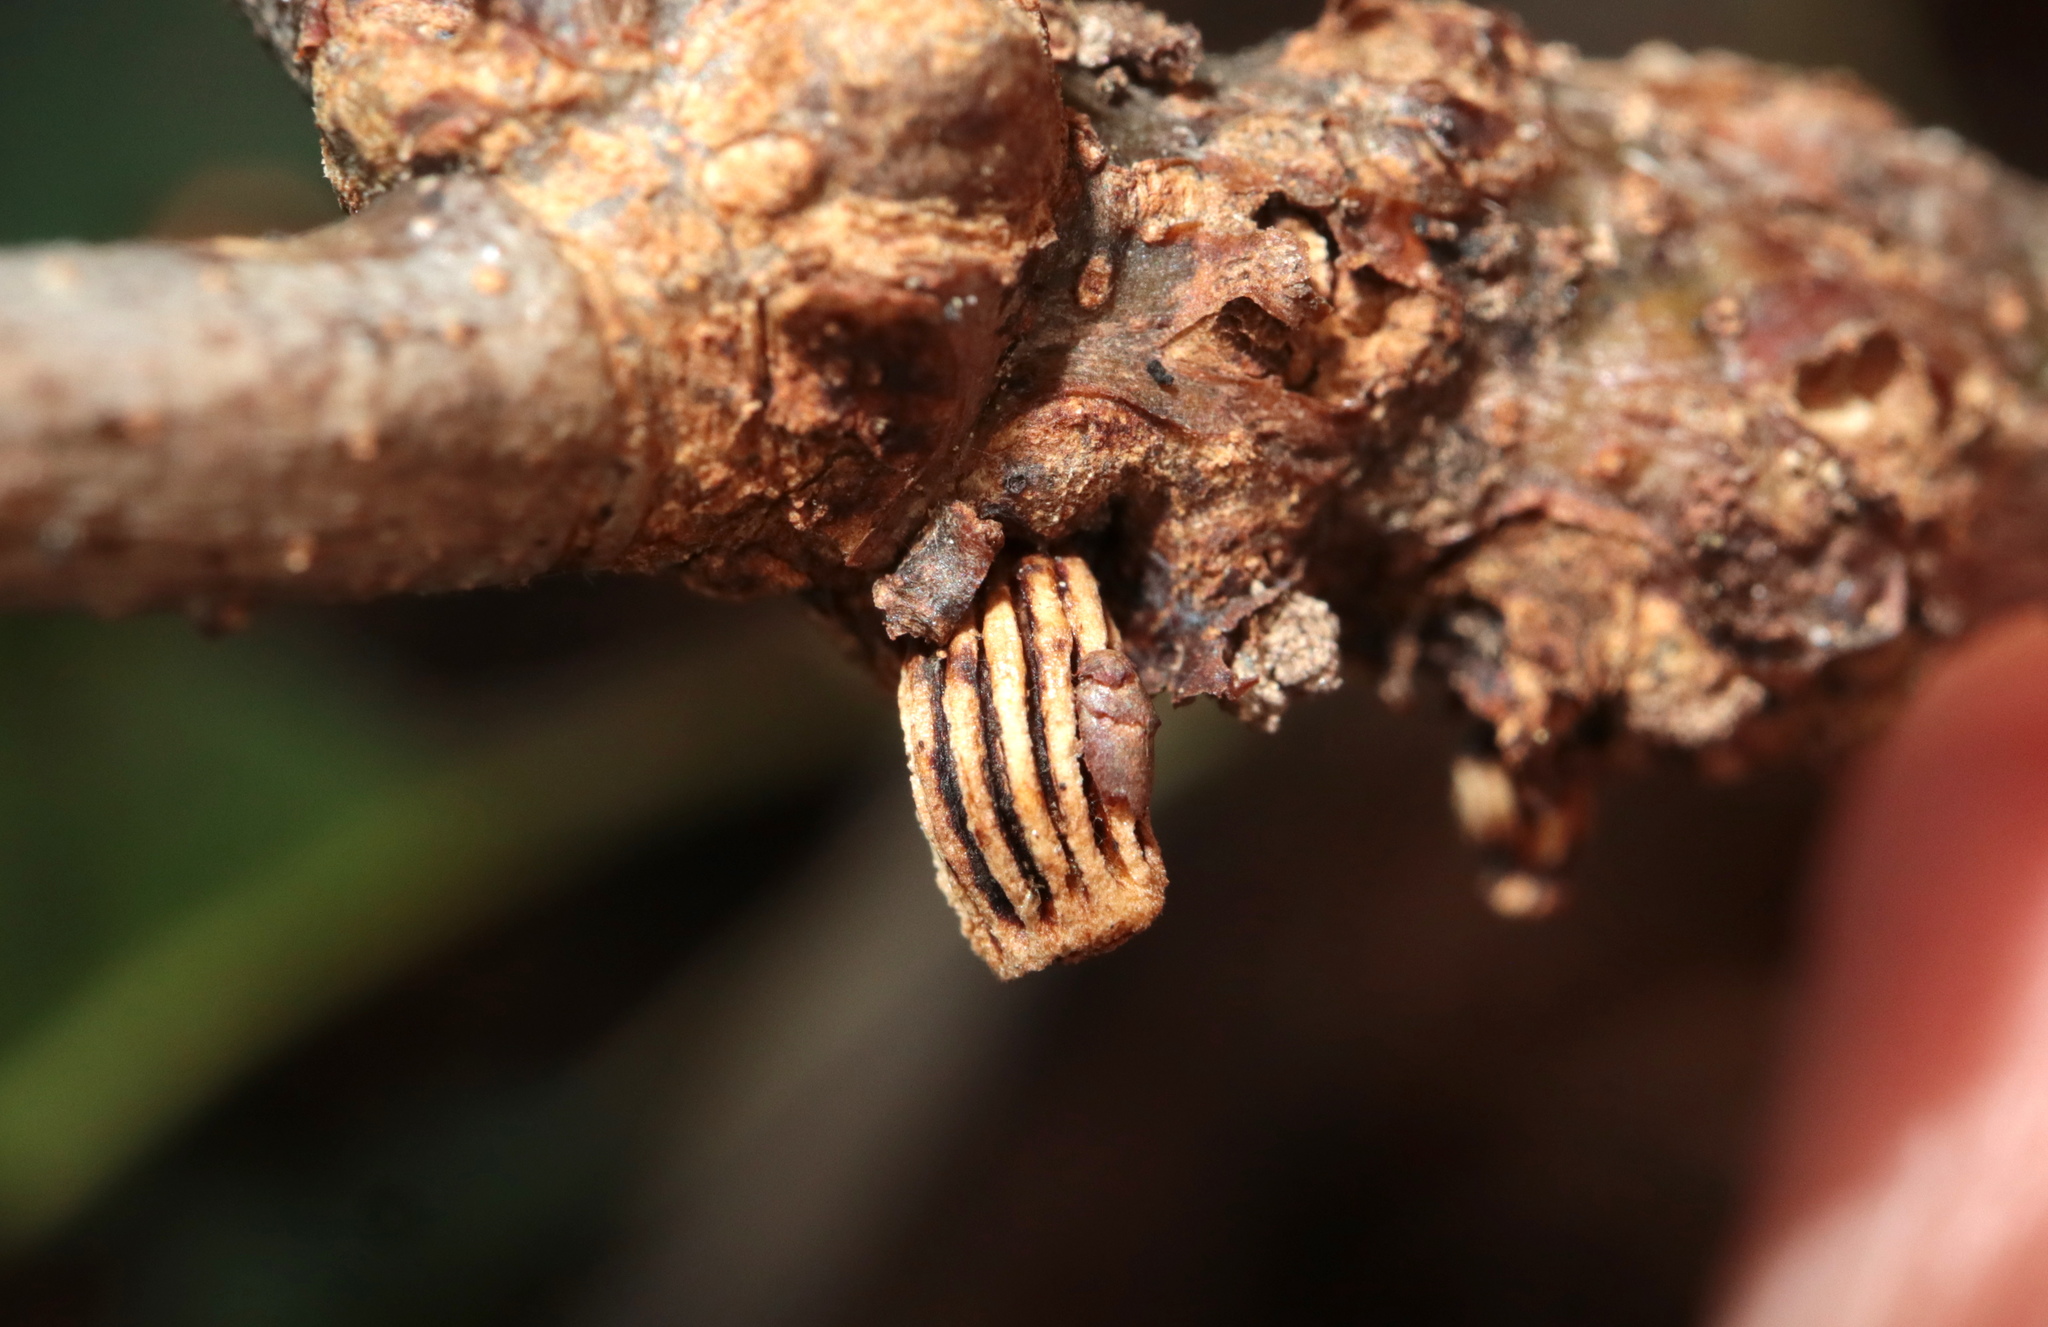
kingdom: Animalia
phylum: Arthropoda
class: Insecta
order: Hymenoptera
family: Cynipidae
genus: Callirhytis
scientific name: Callirhytis
